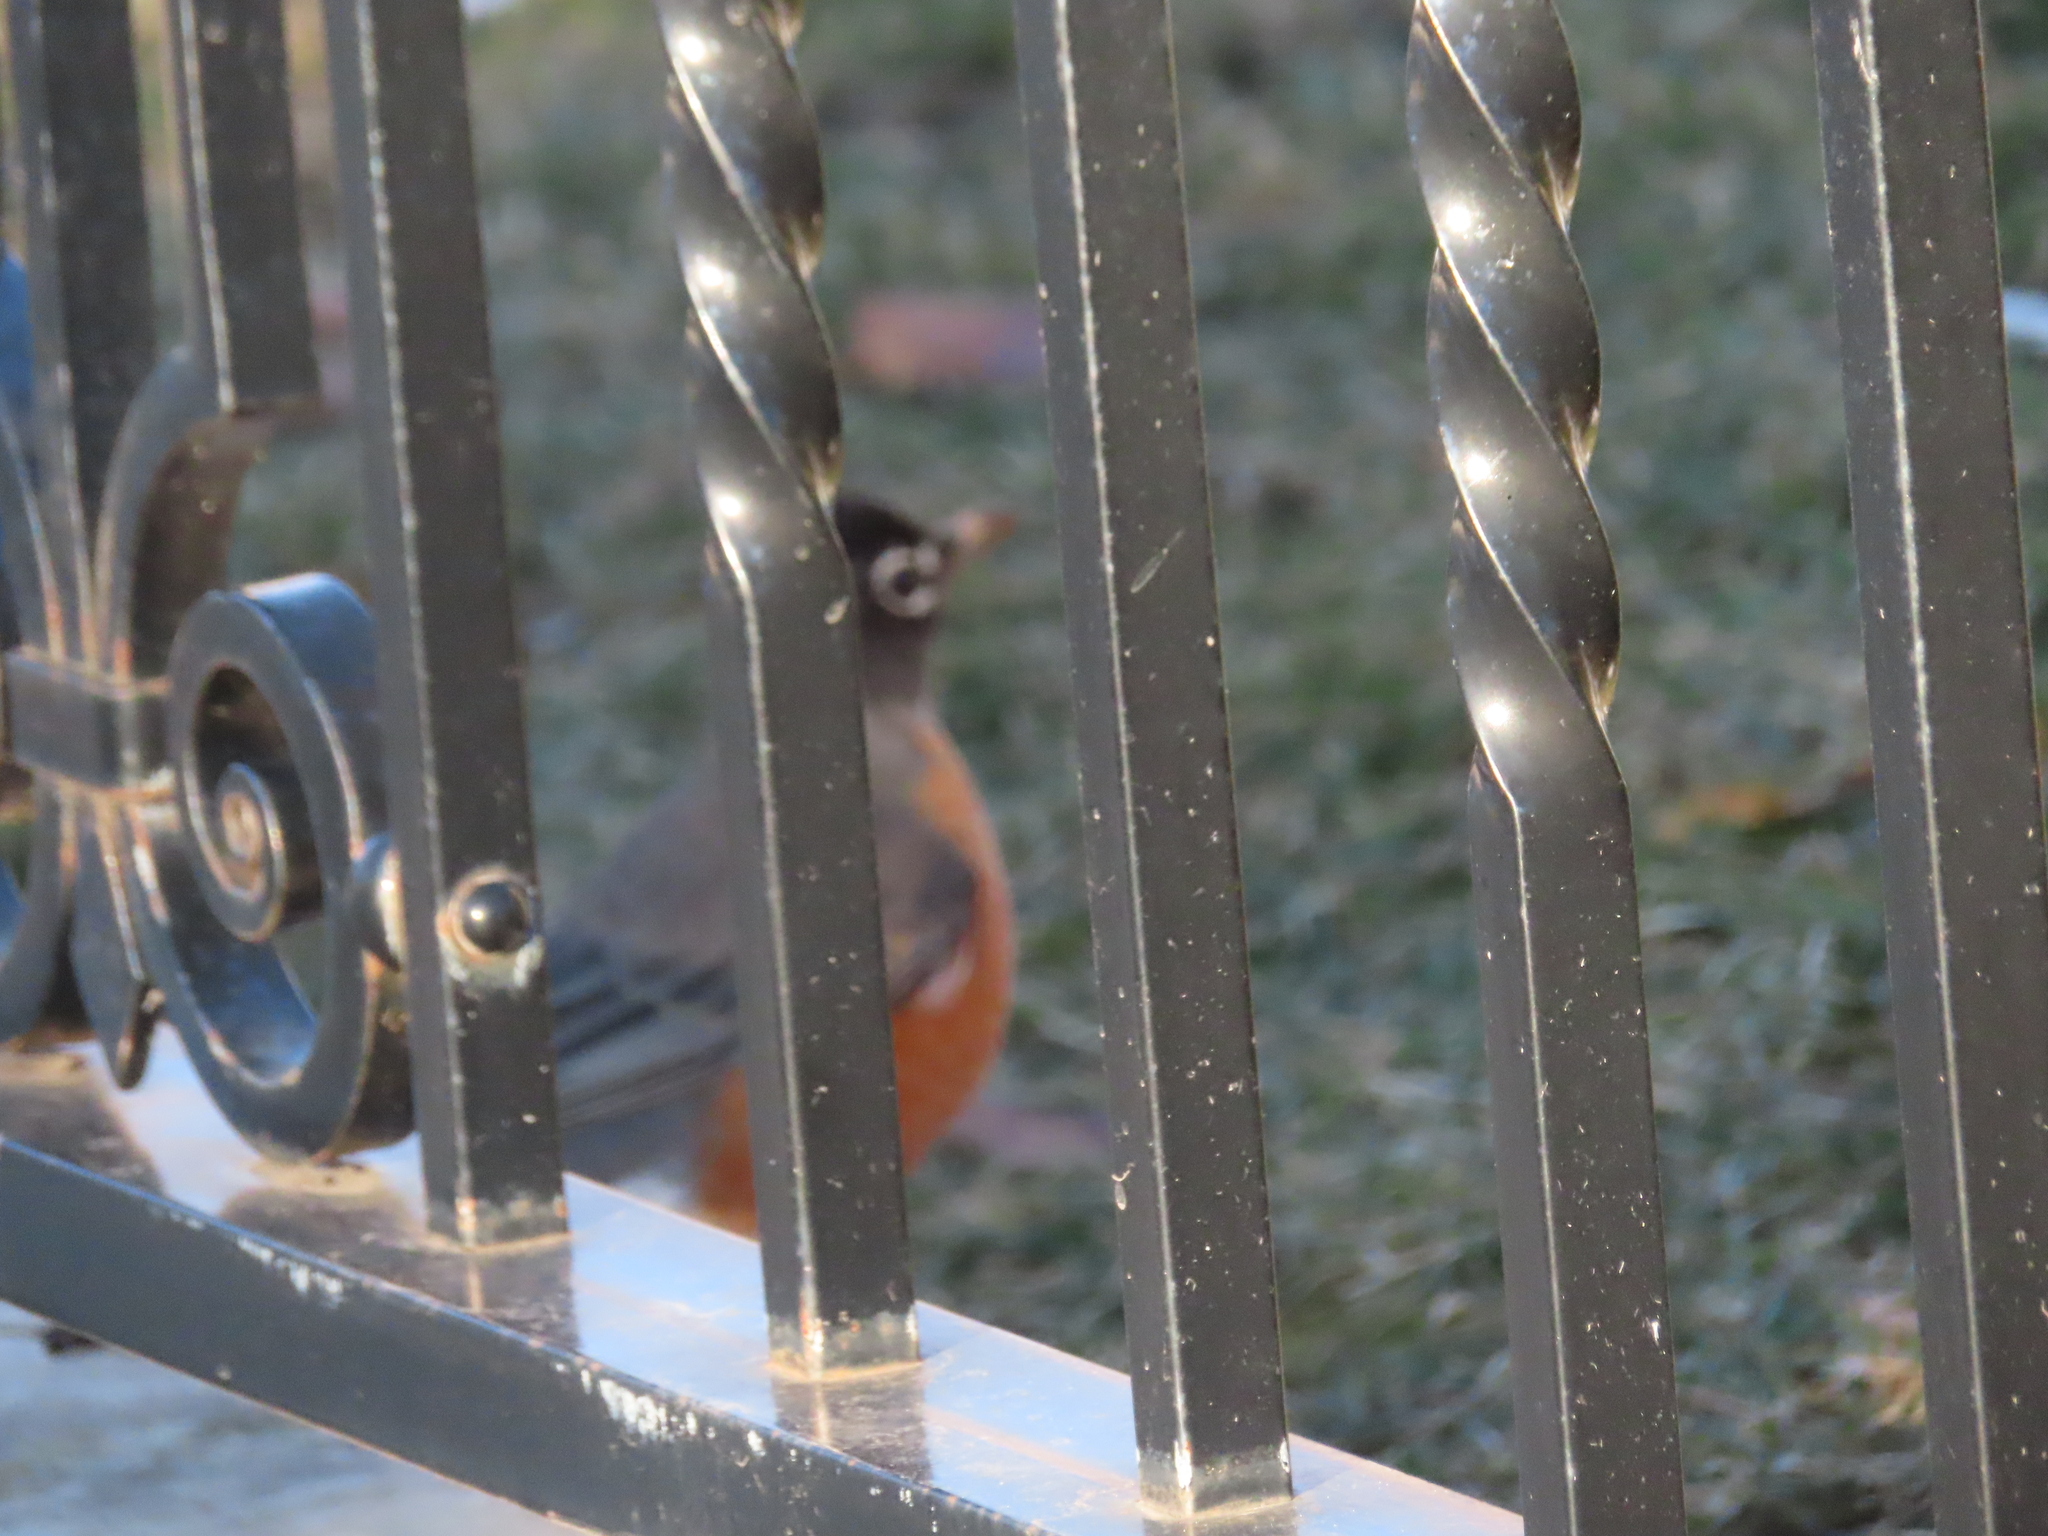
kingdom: Animalia
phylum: Chordata
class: Aves
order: Passeriformes
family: Turdidae
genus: Turdus
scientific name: Turdus migratorius
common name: American robin
